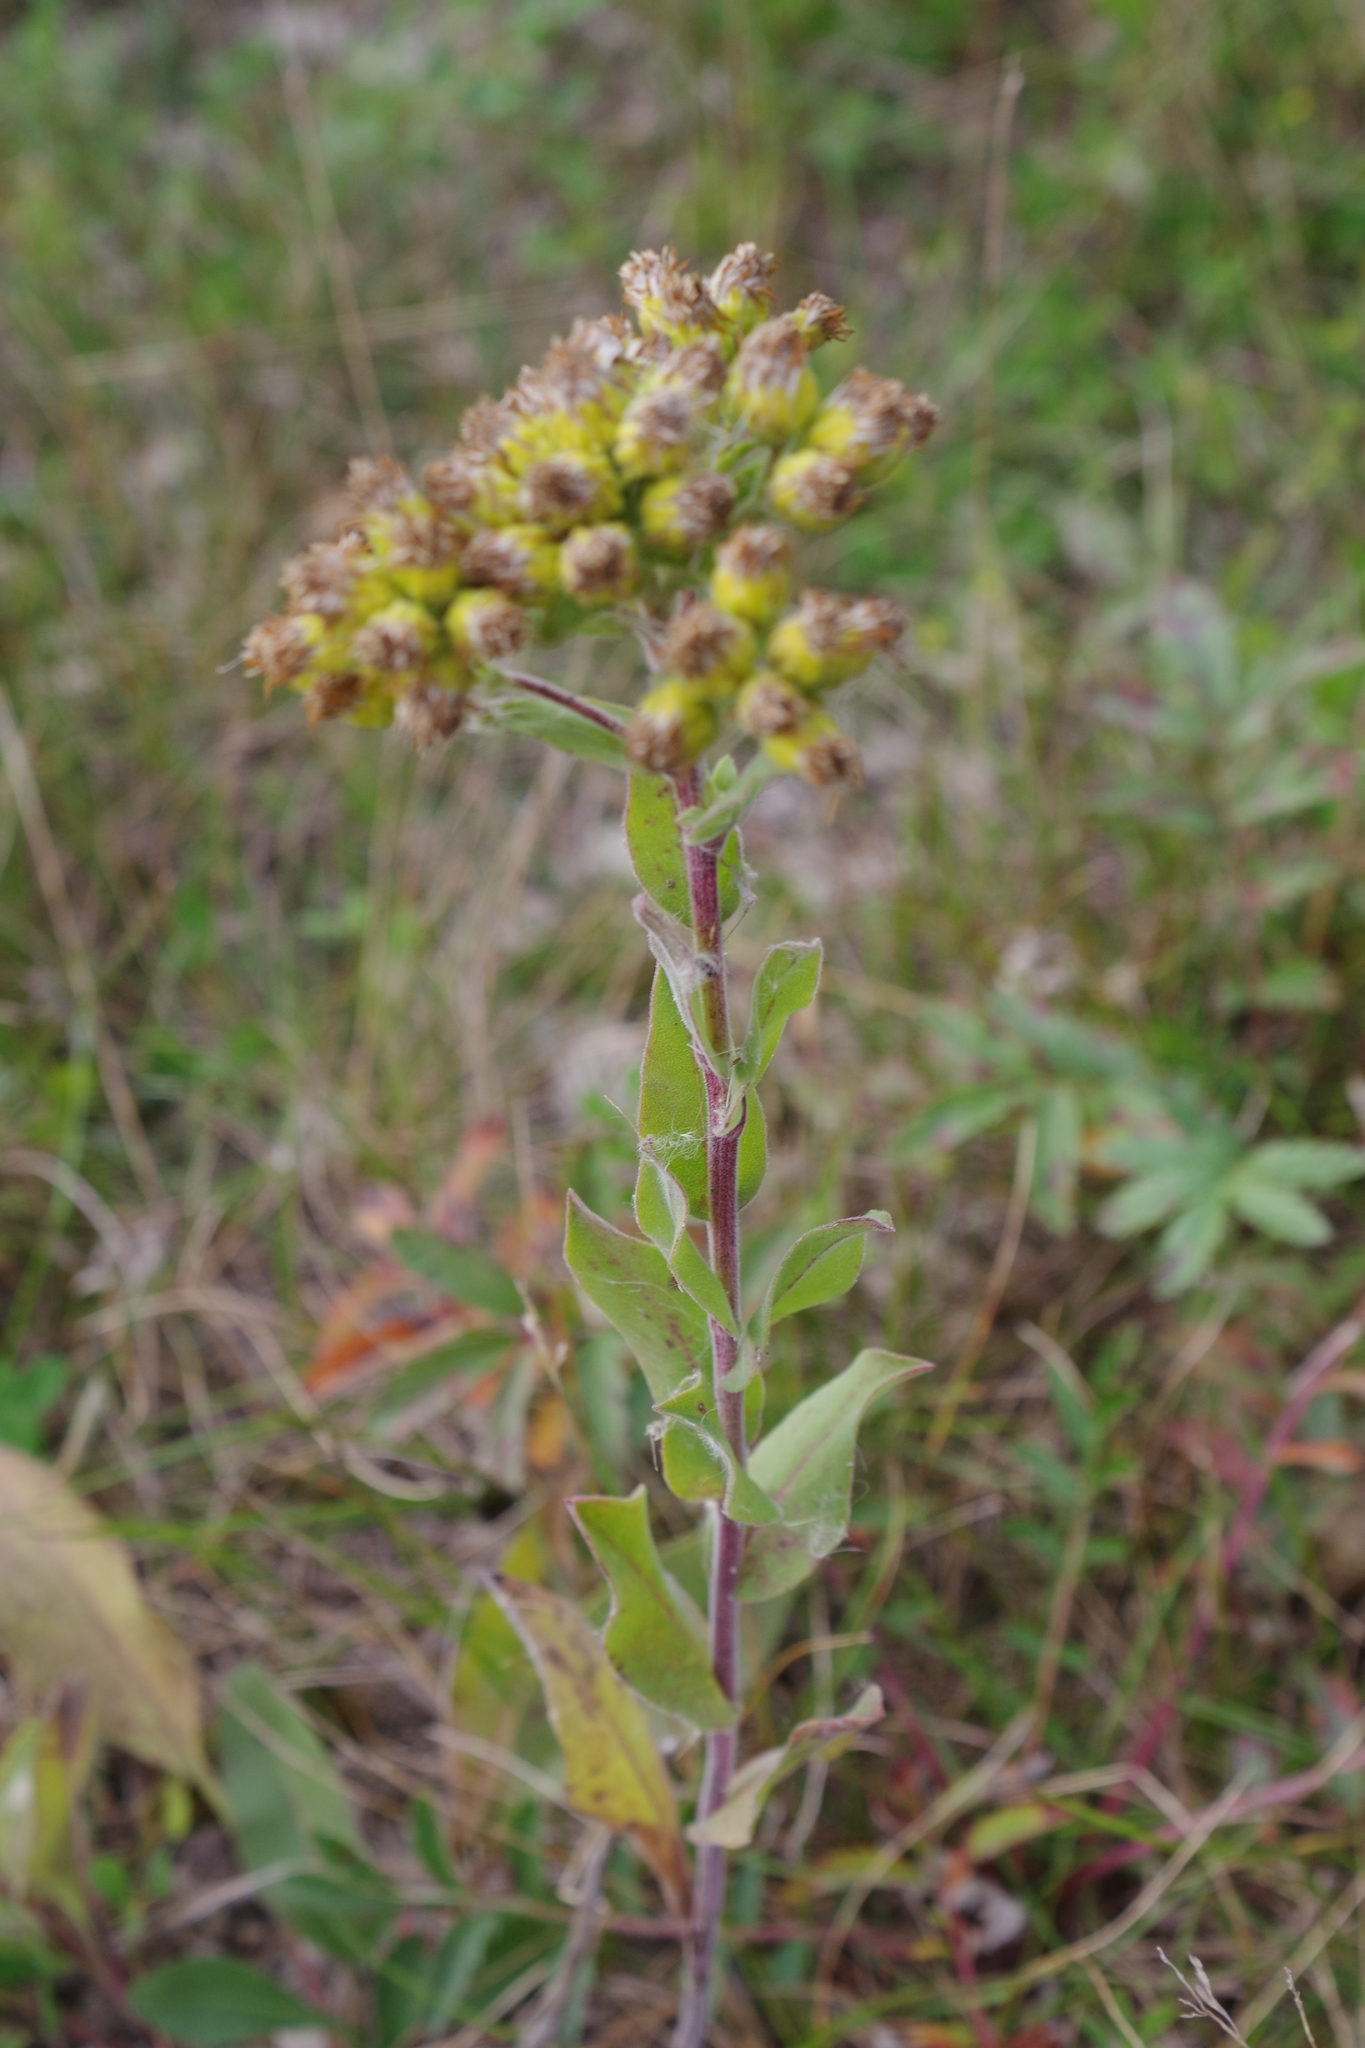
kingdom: Plantae
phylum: Tracheophyta
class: Magnoliopsida
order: Asterales
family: Asteraceae
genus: Solidago
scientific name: Solidago rigida
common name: Rigid goldenrod
